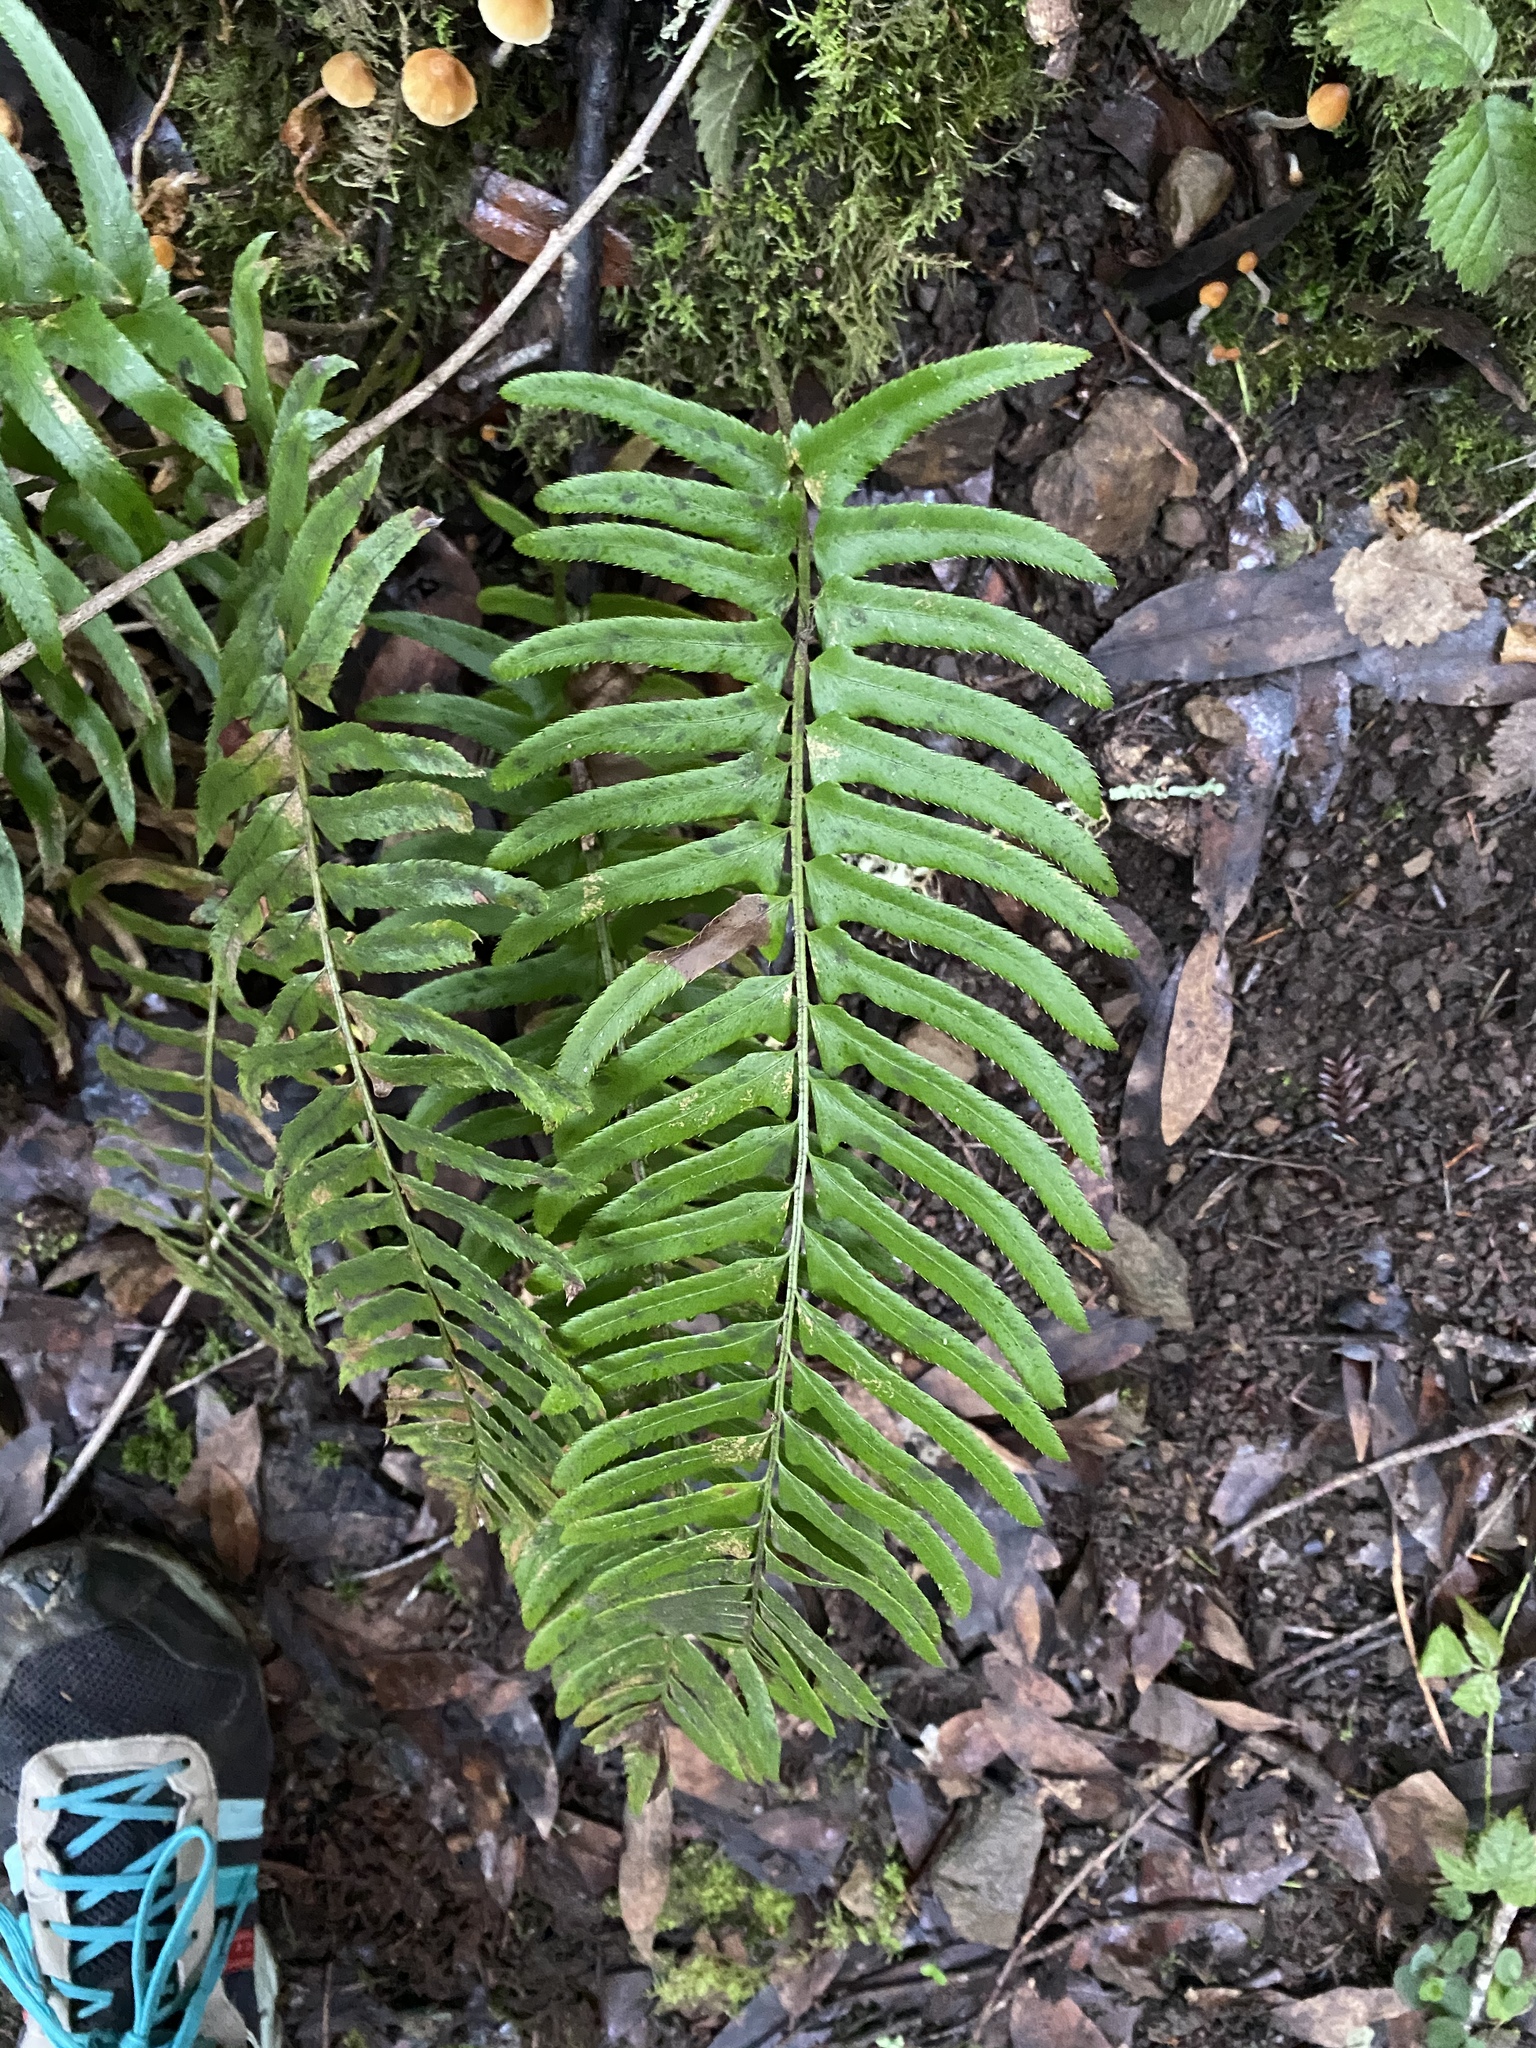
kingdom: Plantae
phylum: Tracheophyta
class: Polypodiopsida
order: Polypodiales
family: Dryopteridaceae
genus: Polystichum
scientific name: Polystichum munitum
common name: Western sword-fern
